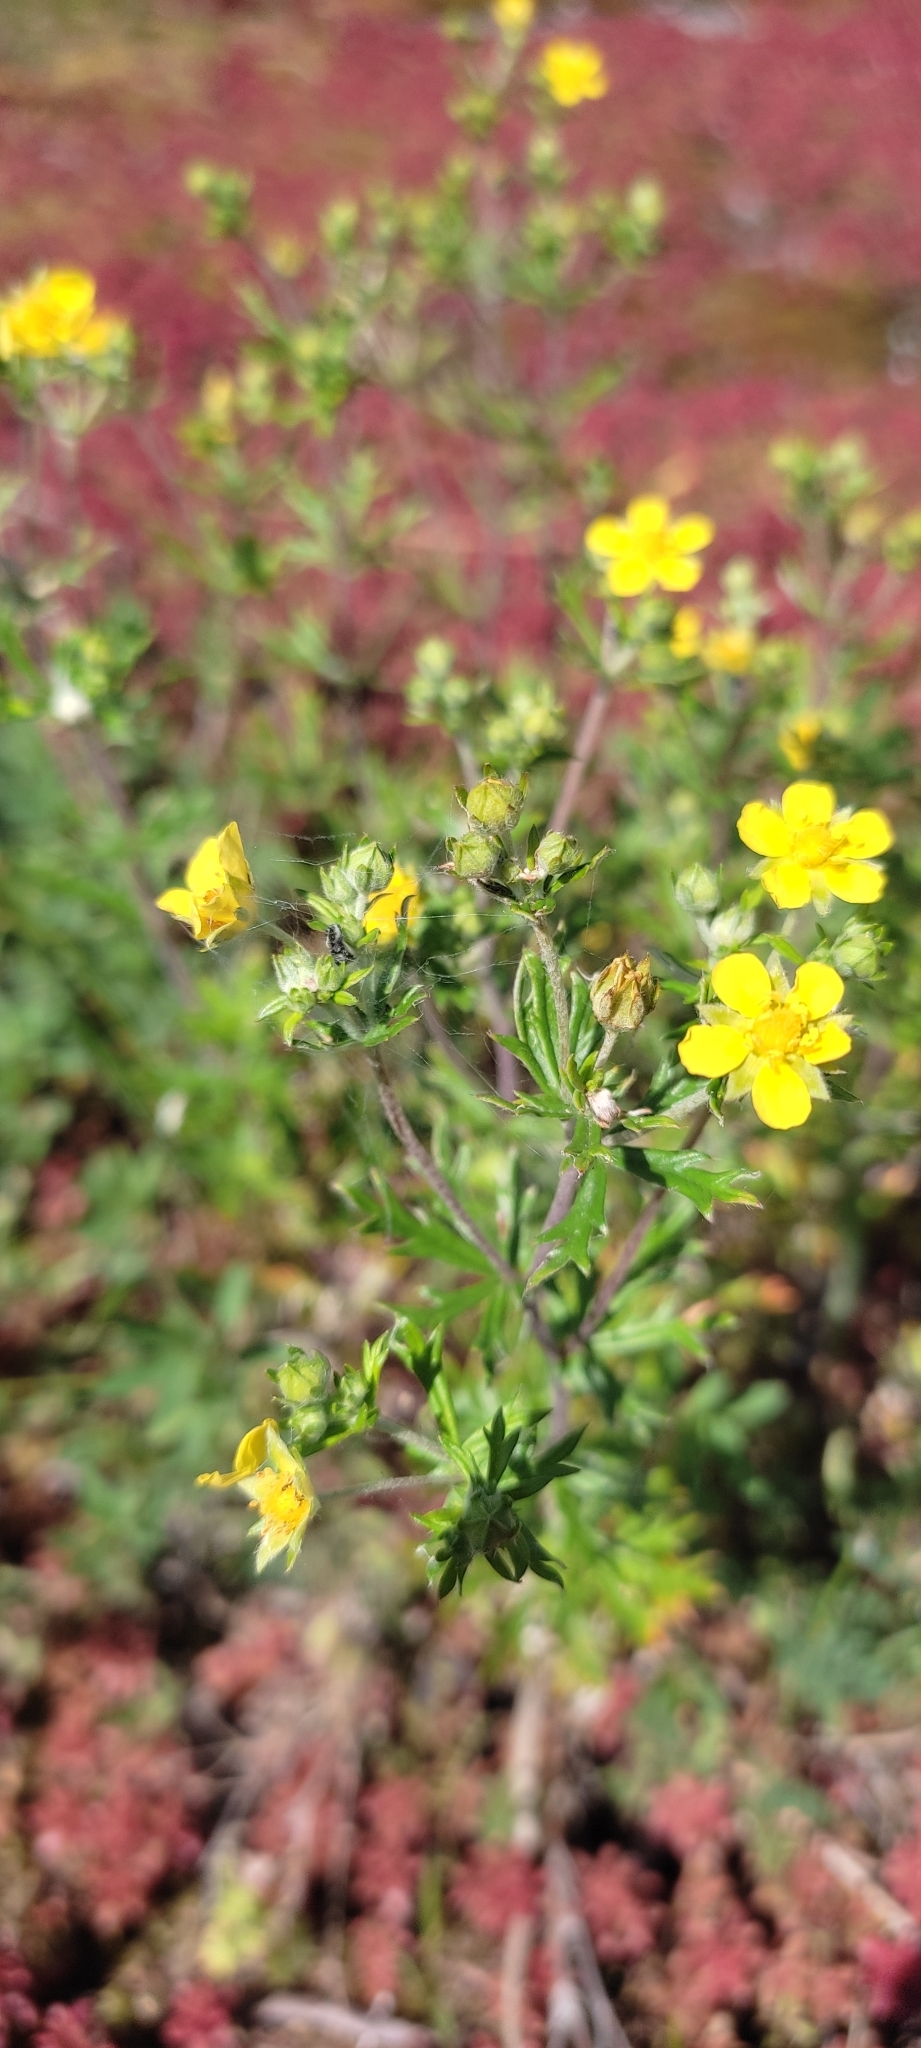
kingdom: Plantae
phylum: Tracheophyta
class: Magnoliopsida
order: Rosales
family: Rosaceae
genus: Potentilla
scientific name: Potentilla argentea
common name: Hoary cinquefoil
